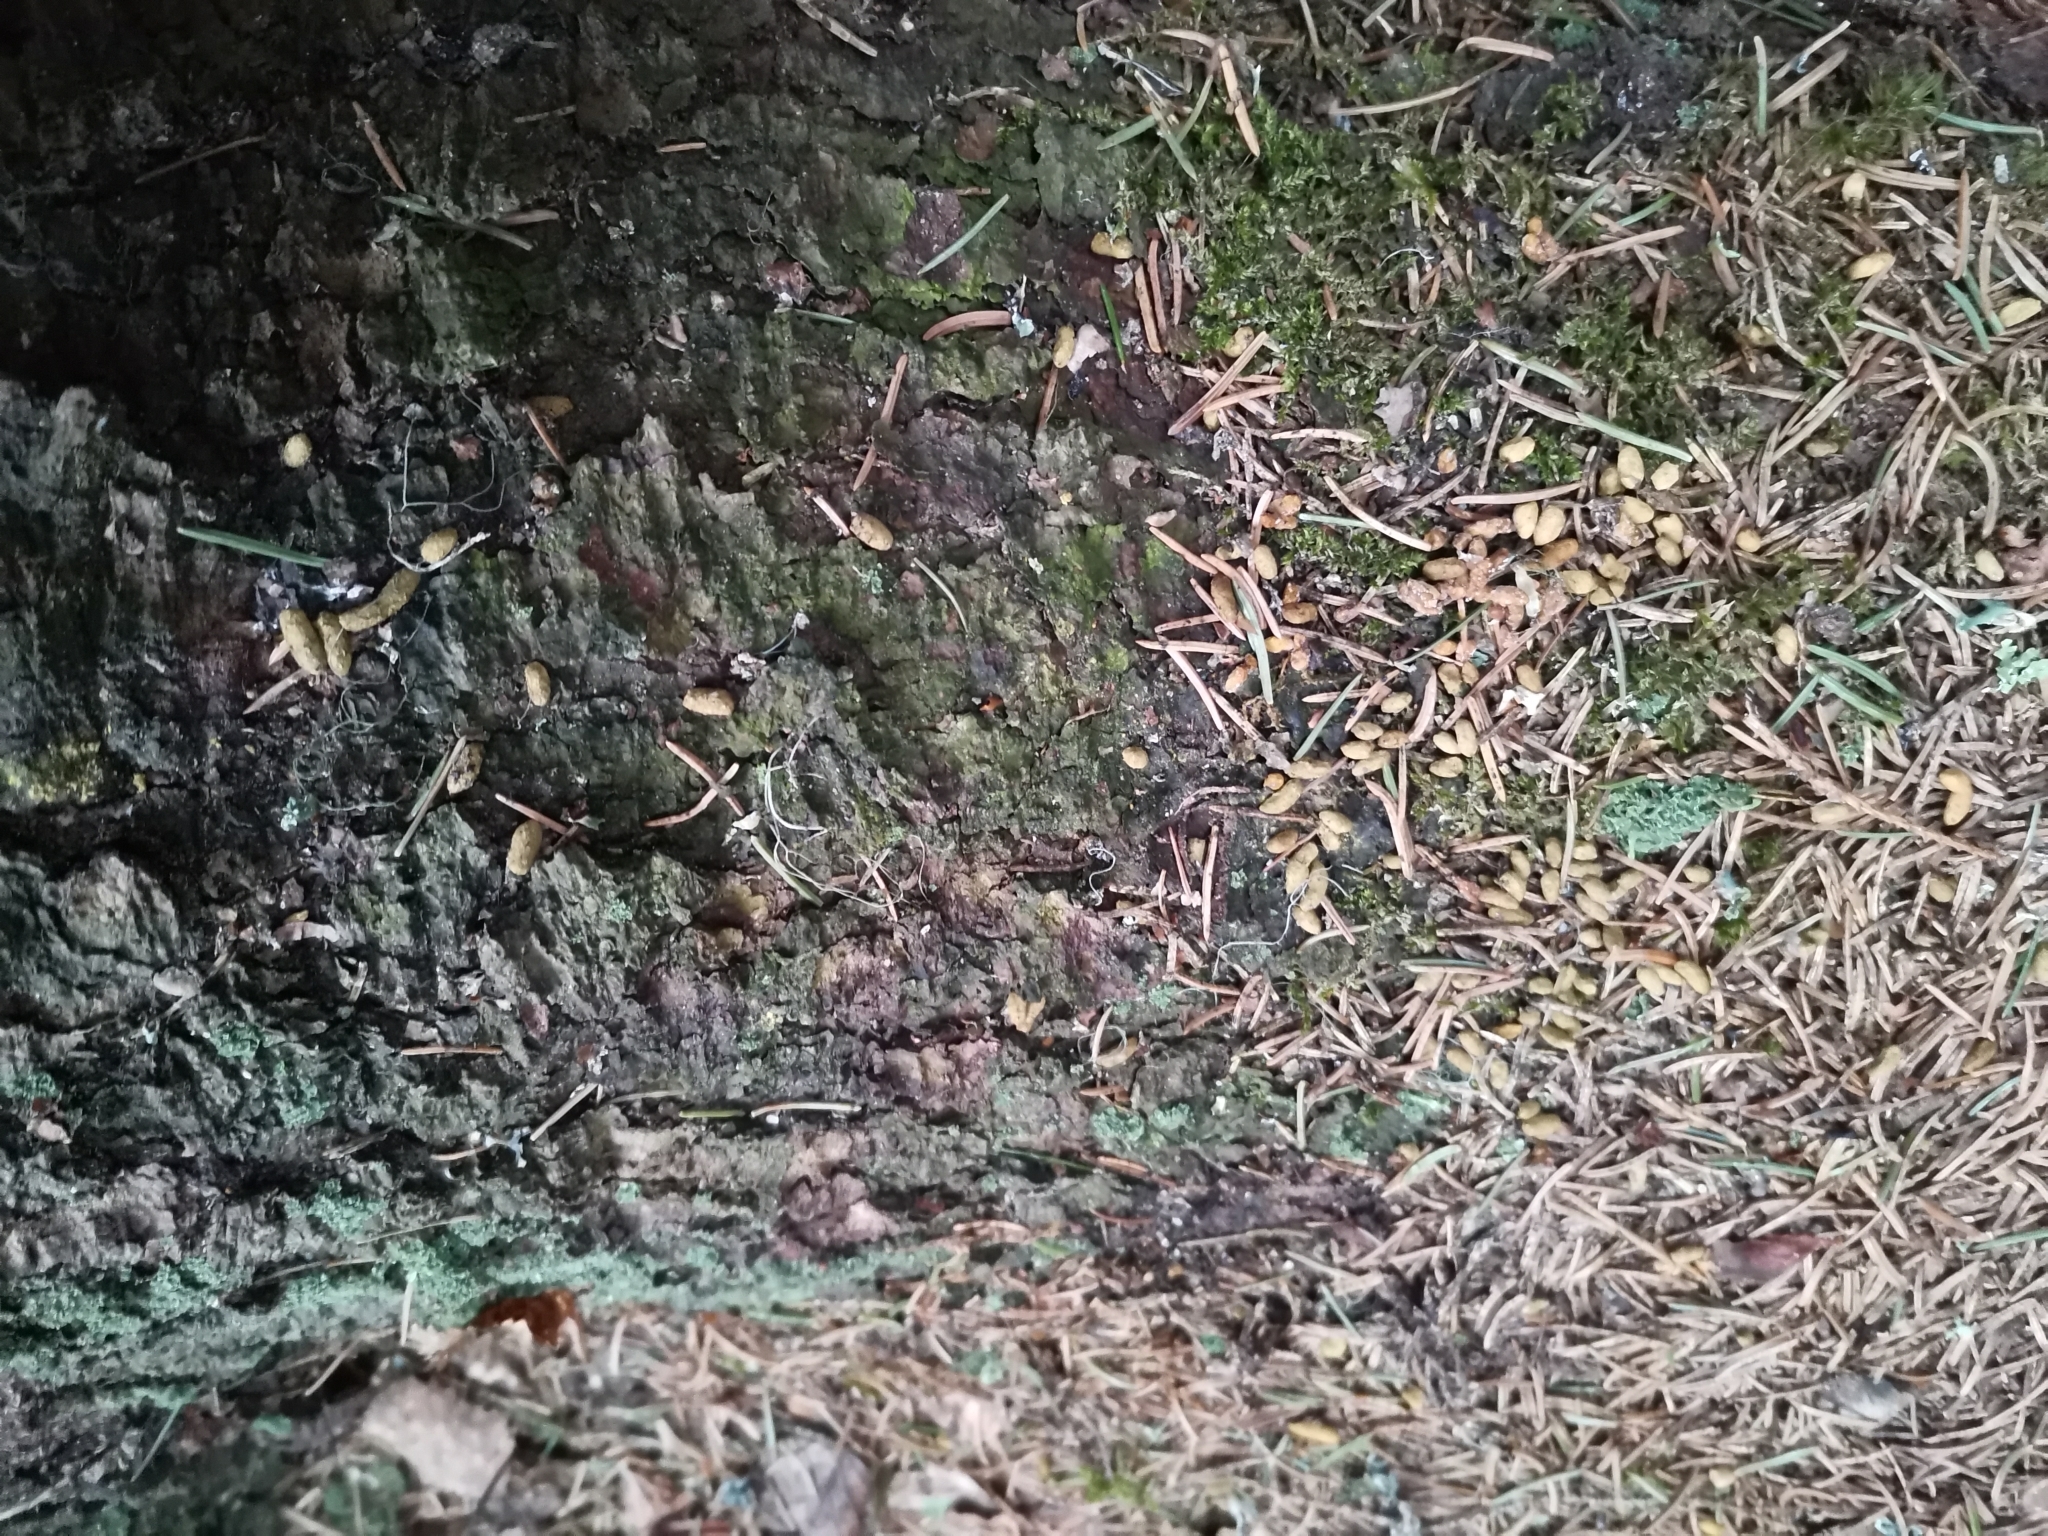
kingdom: Animalia
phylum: Chordata
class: Mammalia
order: Rodentia
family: Sciuridae
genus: Pteromys
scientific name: Pteromys volans
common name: Siberian flying squirrel
